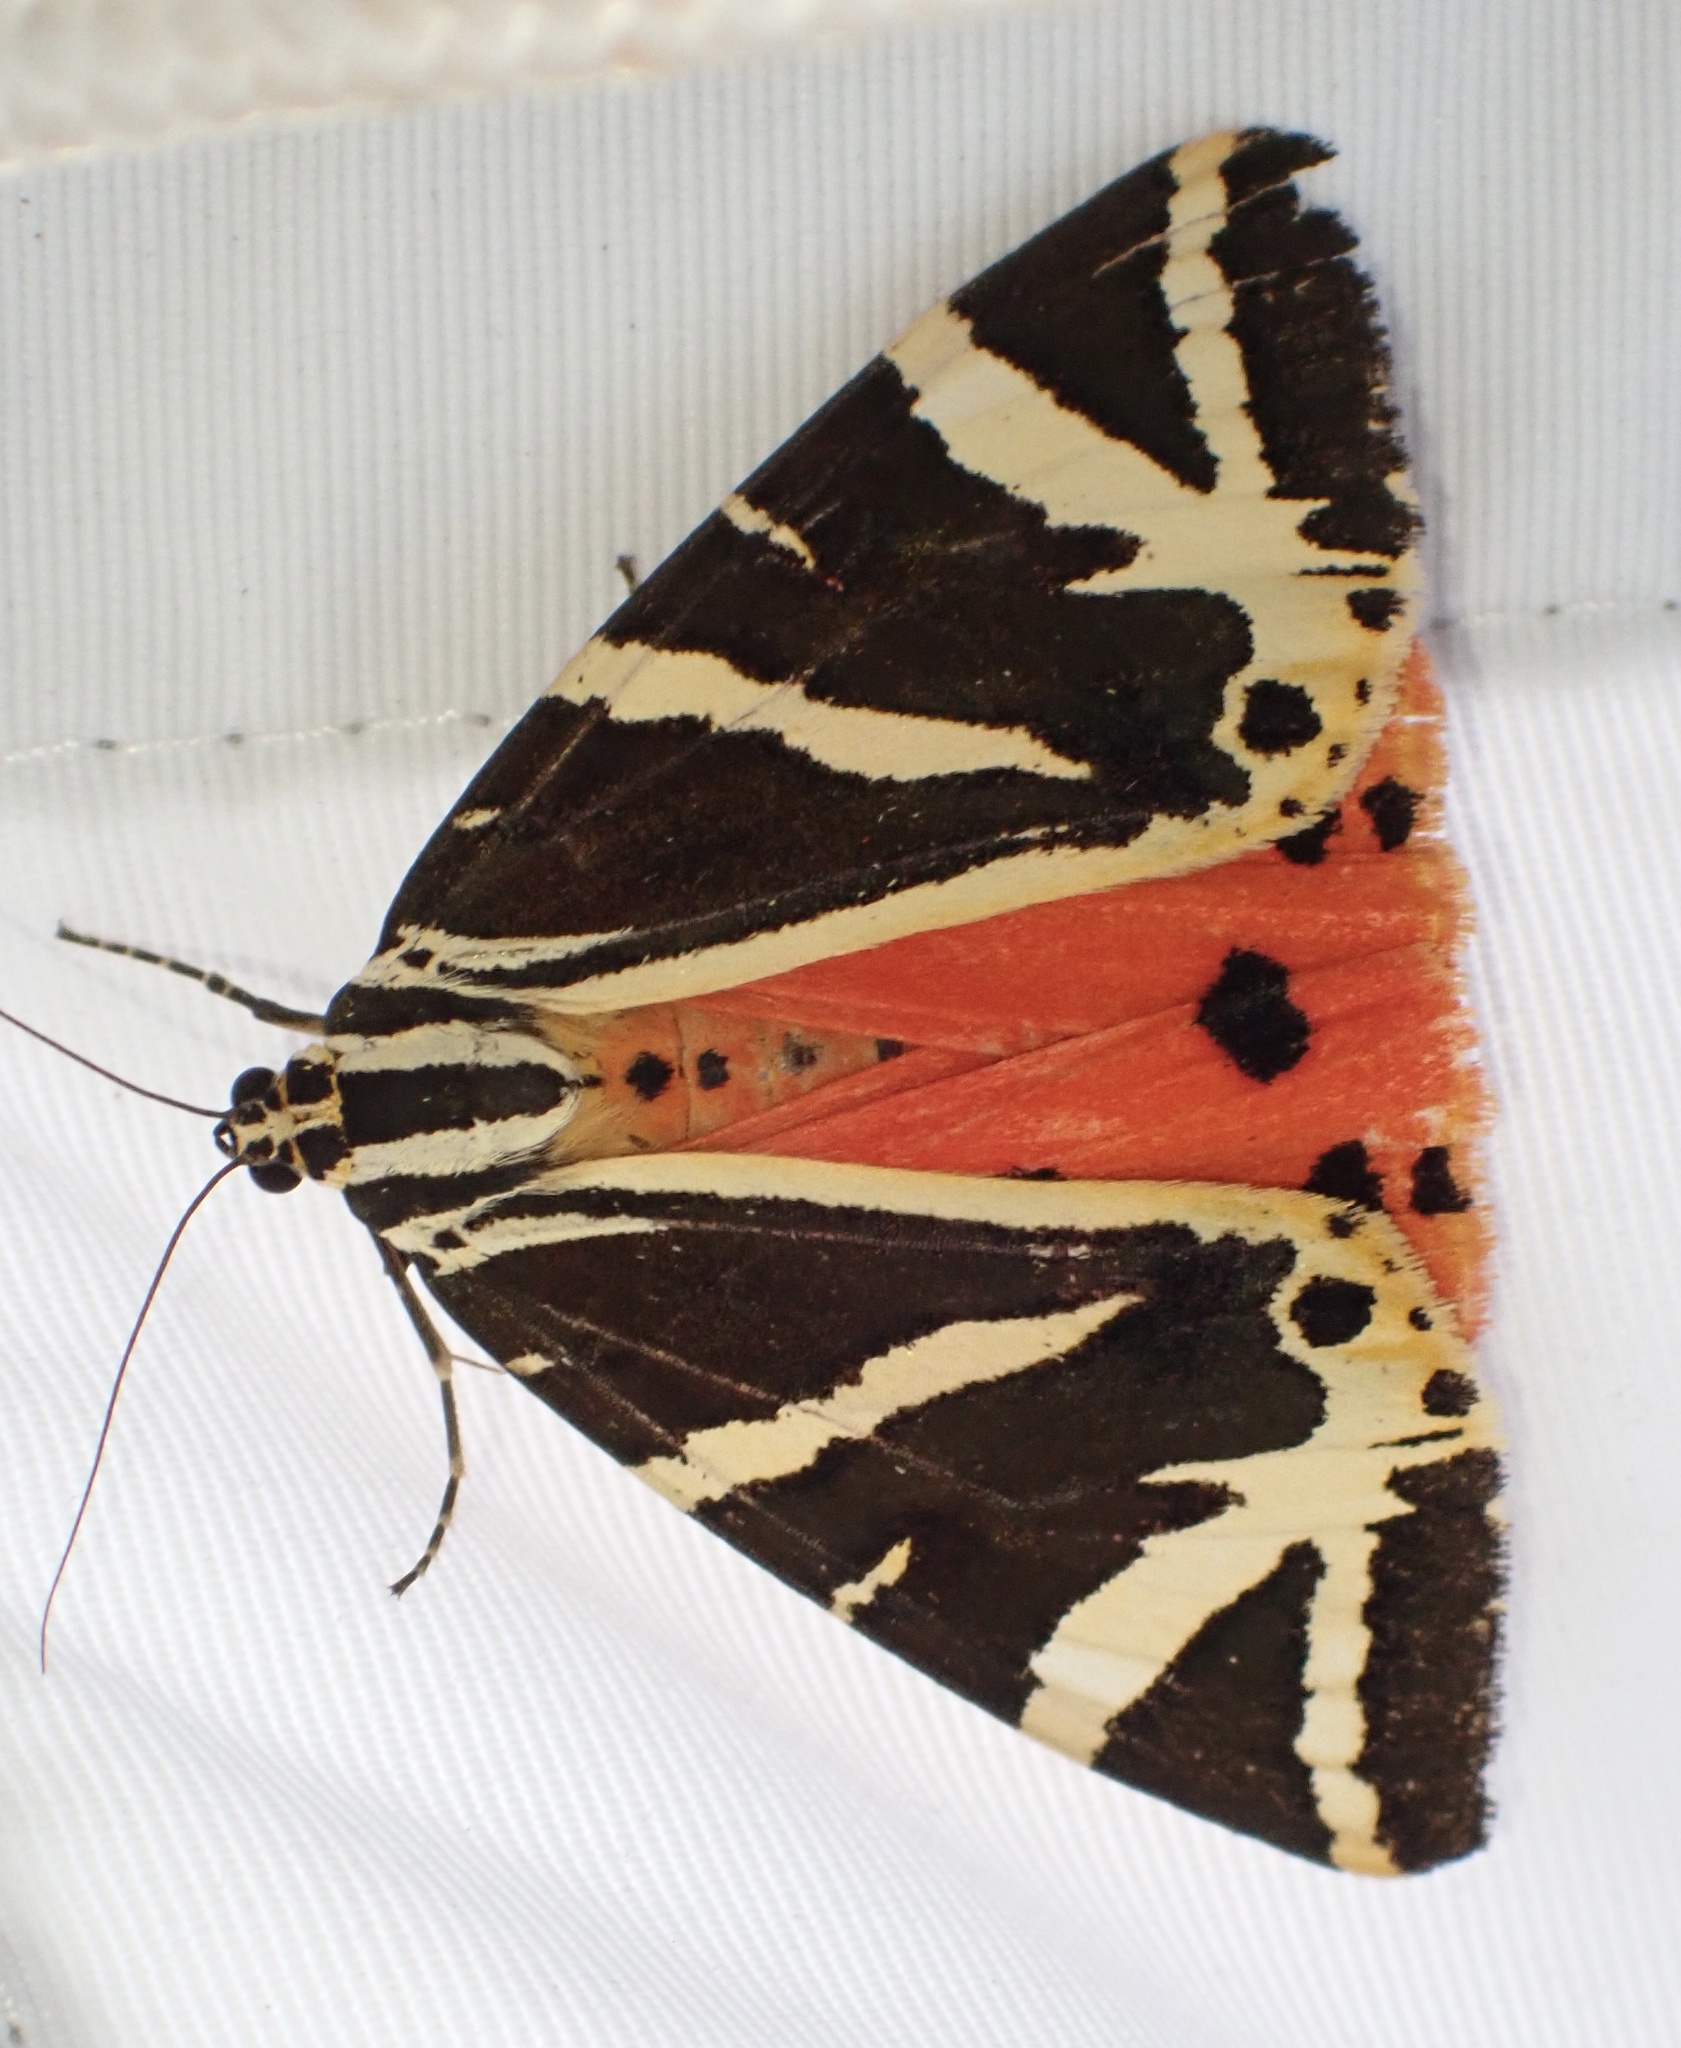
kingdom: Animalia
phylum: Arthropoda
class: Insecta
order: Lepidoptera
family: Erebidae
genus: Euplagia
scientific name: Euplagia quadripunctaria
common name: Jersey tiger
